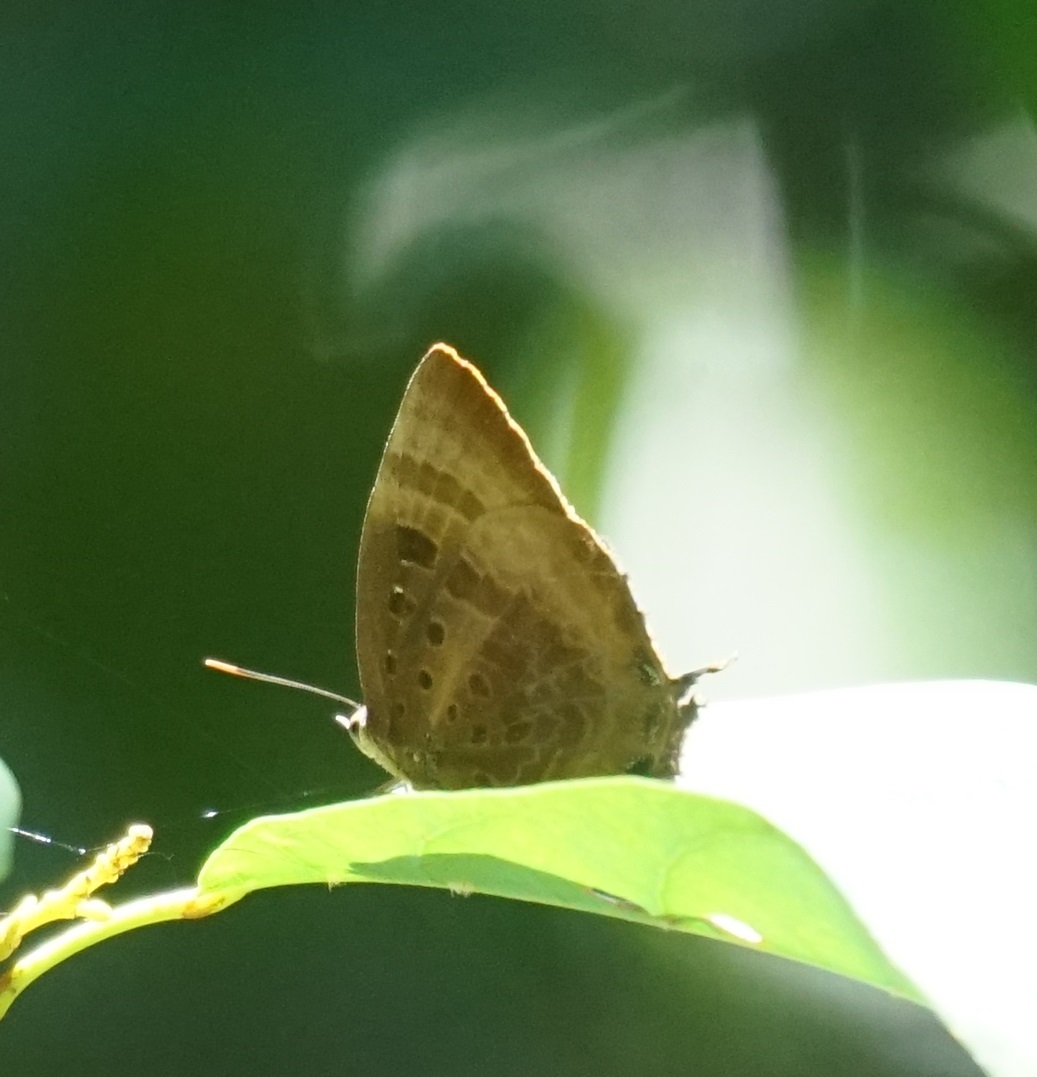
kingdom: Animalia
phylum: Arthropoda
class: Insecta
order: Lepidoptera
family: Lycaenidae
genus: Arhopala
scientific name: Arhopala micale
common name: Shining oak-blue
